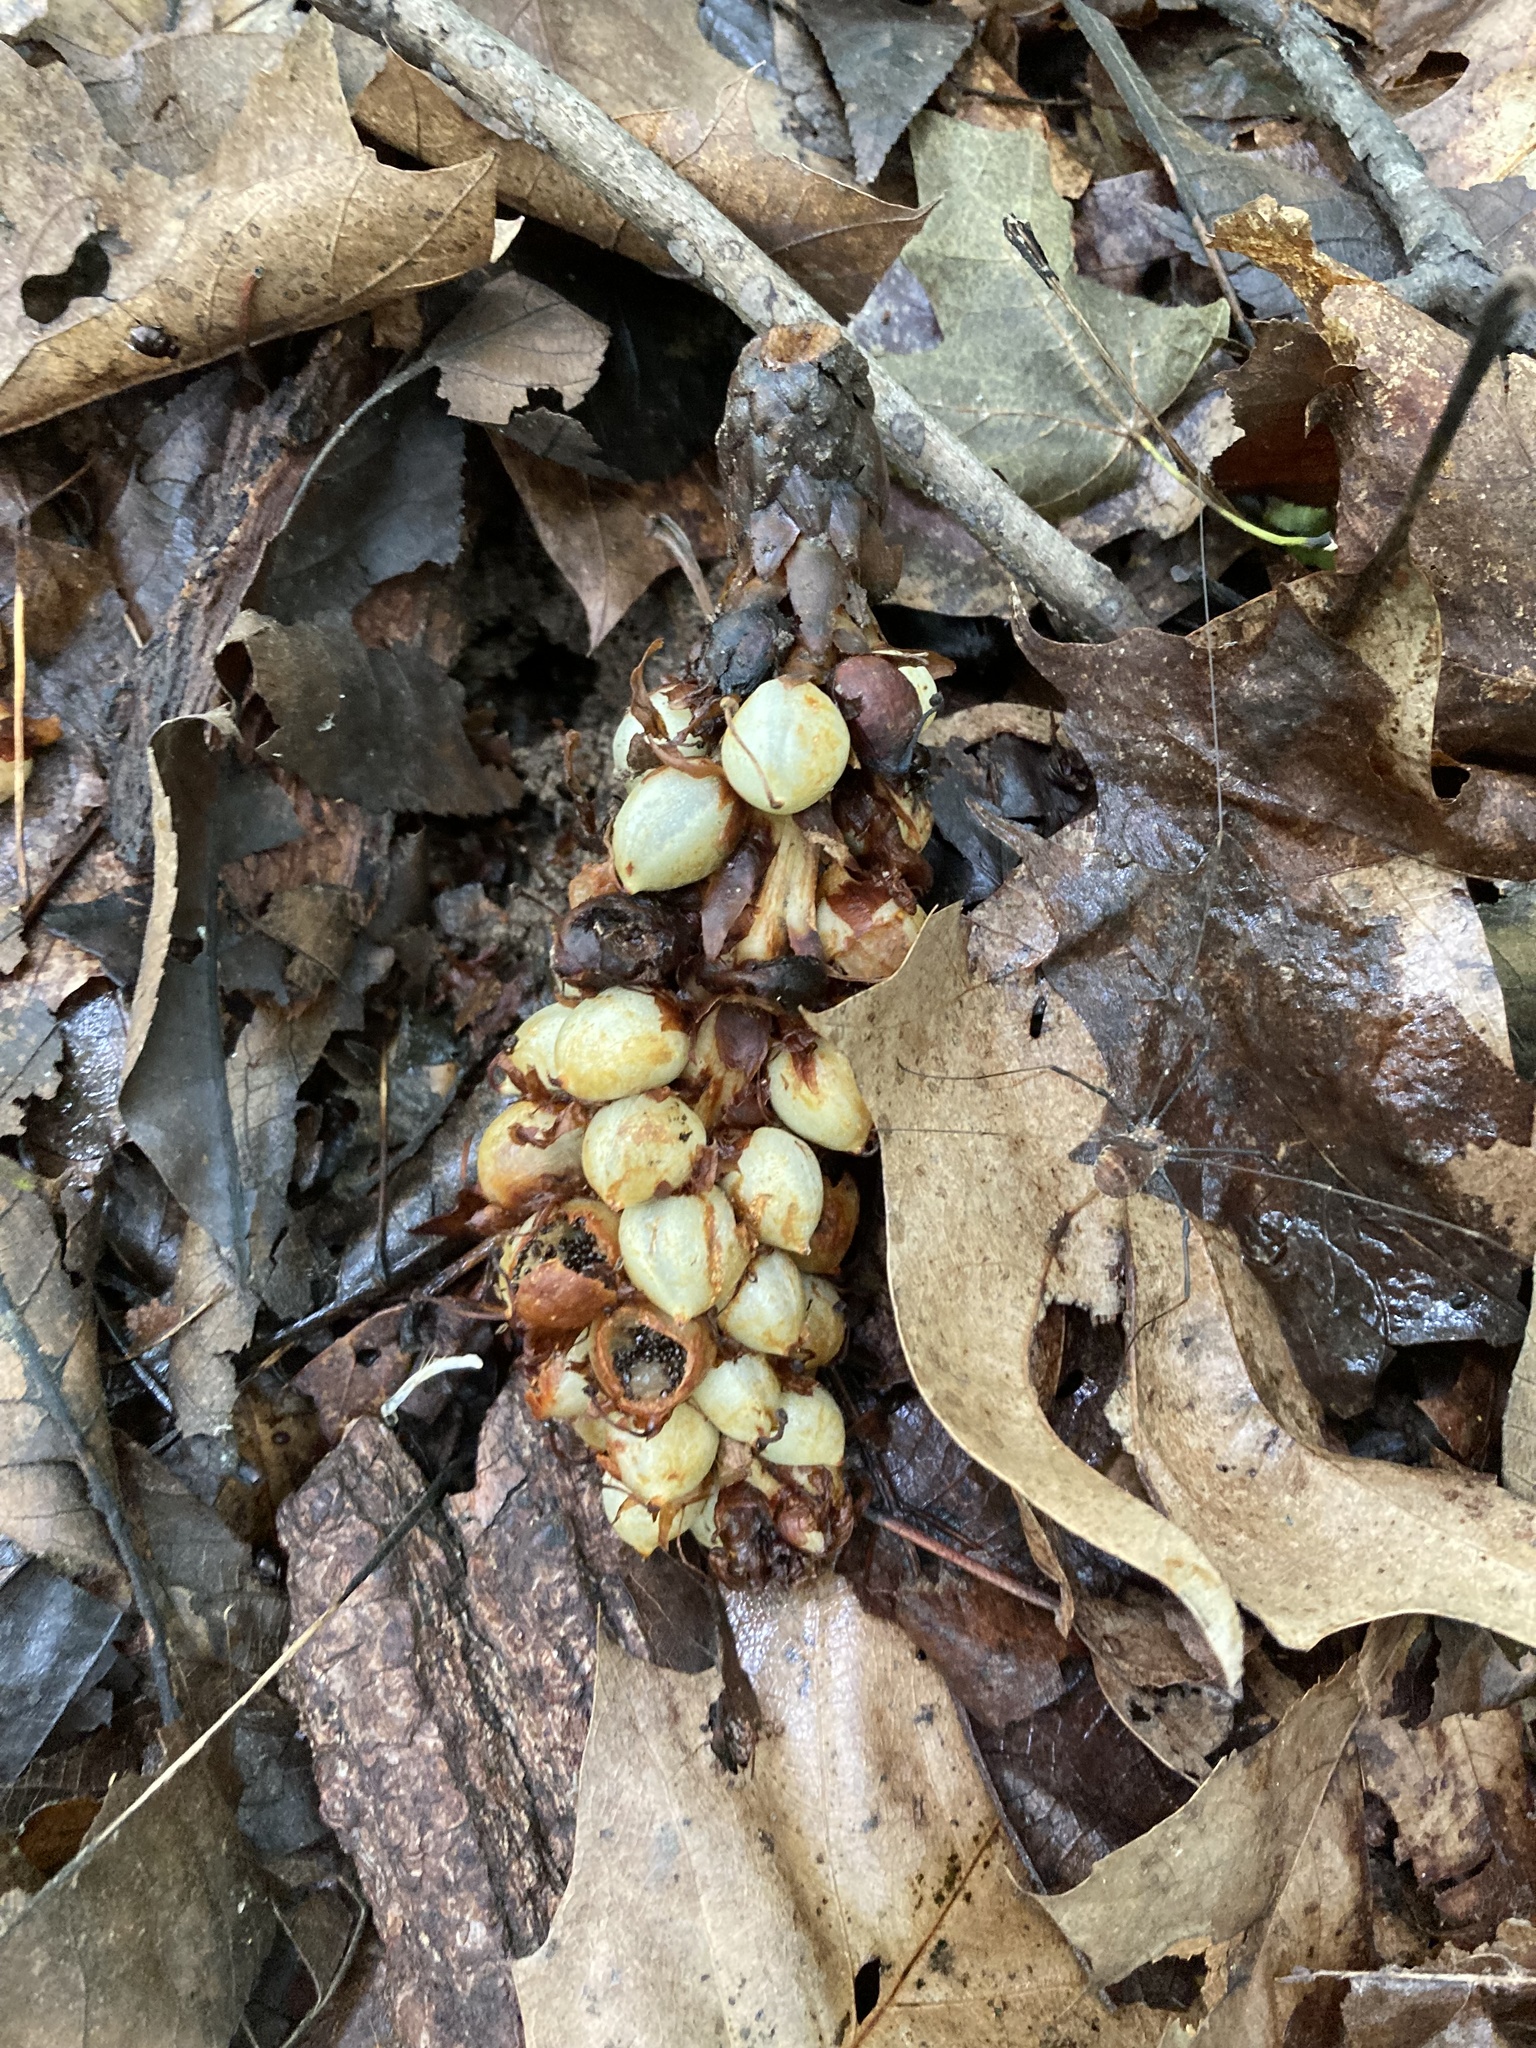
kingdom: Plantae
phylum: Tracheophyta
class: Magnoliopsida
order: Lamiales
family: Orobanchaceae
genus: Conopholis
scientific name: Conopholis americana
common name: American cancer-root
